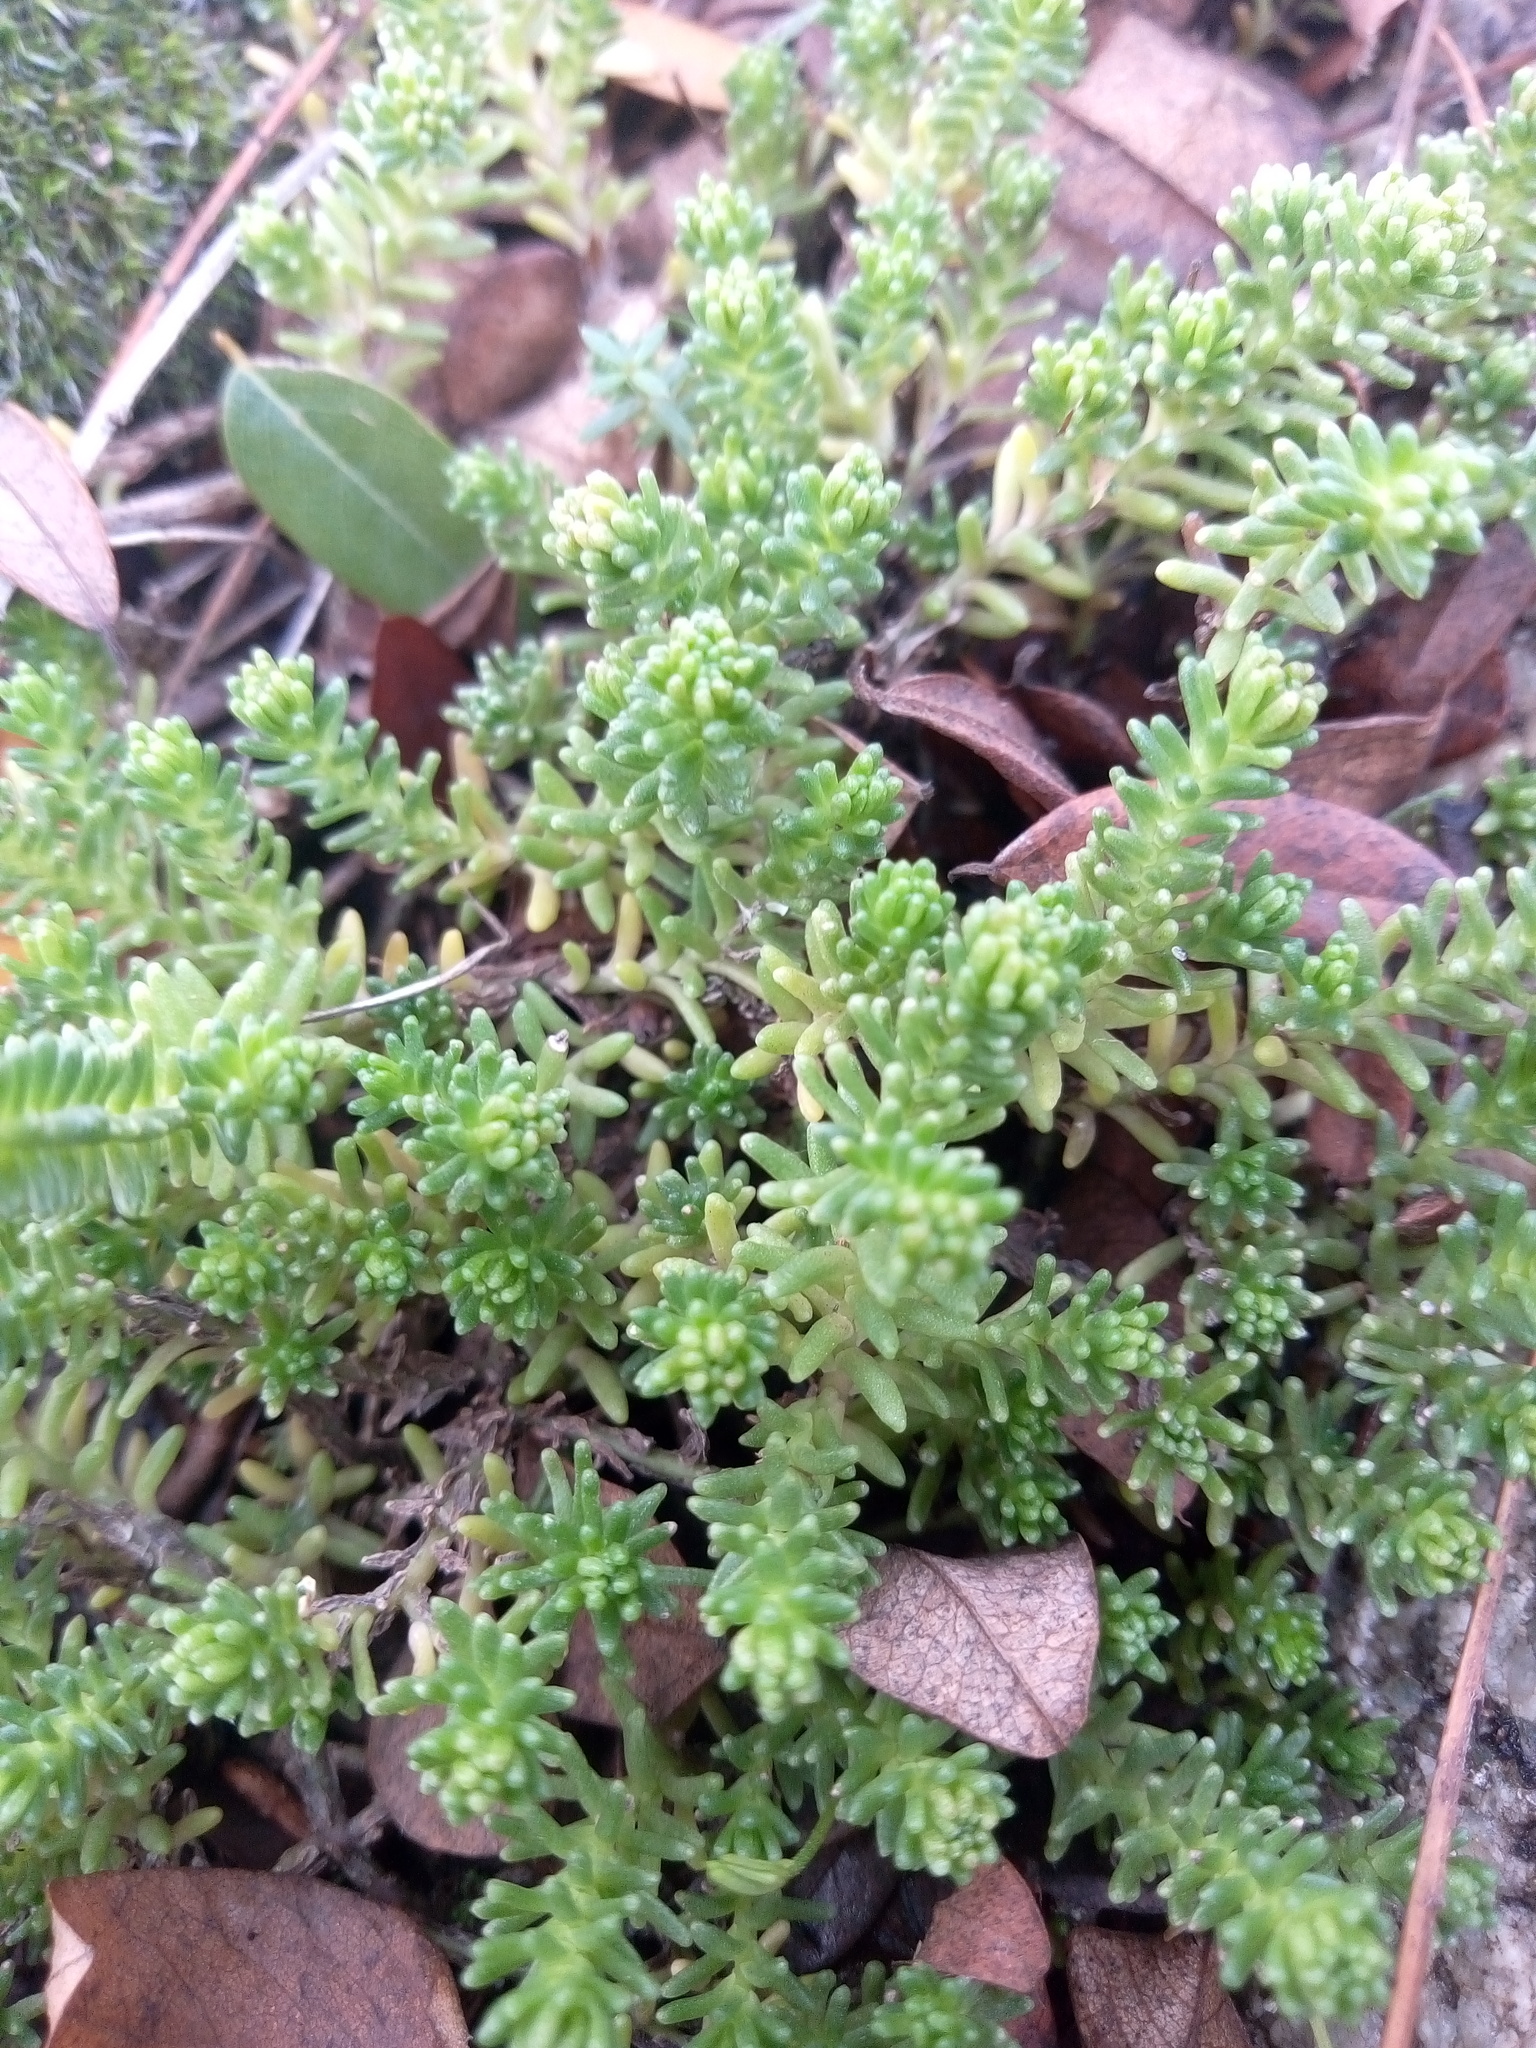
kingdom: Plantae
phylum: Tracheophyta
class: Magnoliopsida
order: Saxifragales
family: Crassulaceae
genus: Sedum
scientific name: Sedum sexangulare
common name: Tasteless stonecrop
